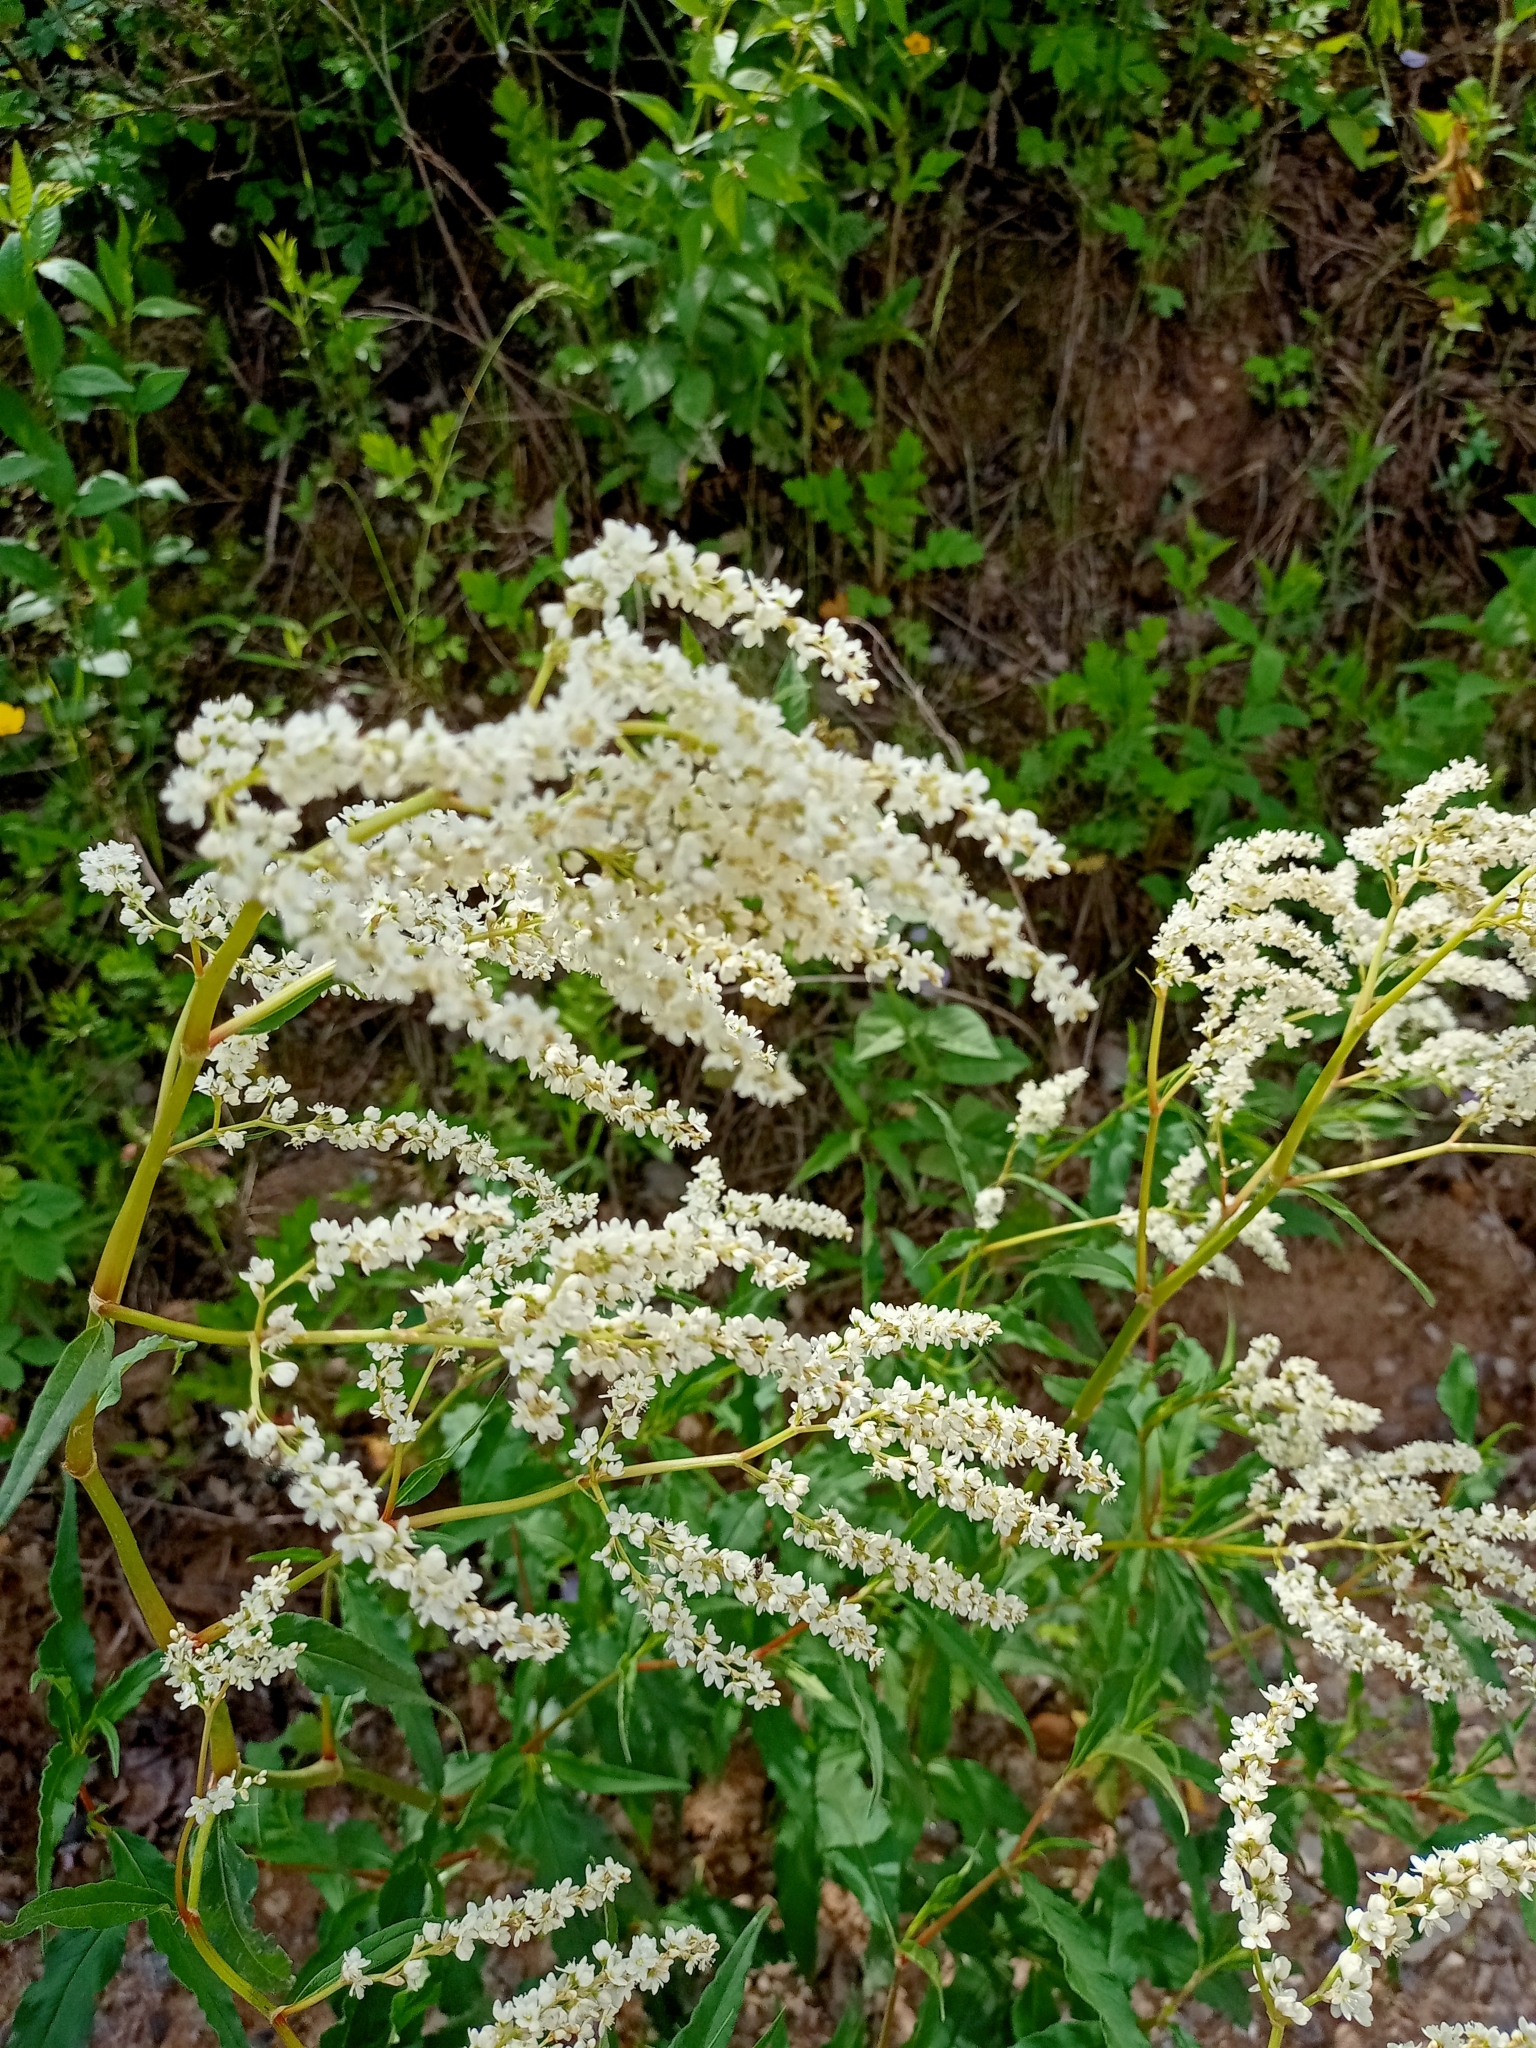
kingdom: Plantae
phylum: Tracheophyta
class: Magnoliopsida
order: Caryophyllales
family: Polygonaceae
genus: Koenigia
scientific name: Koenigia alpina
